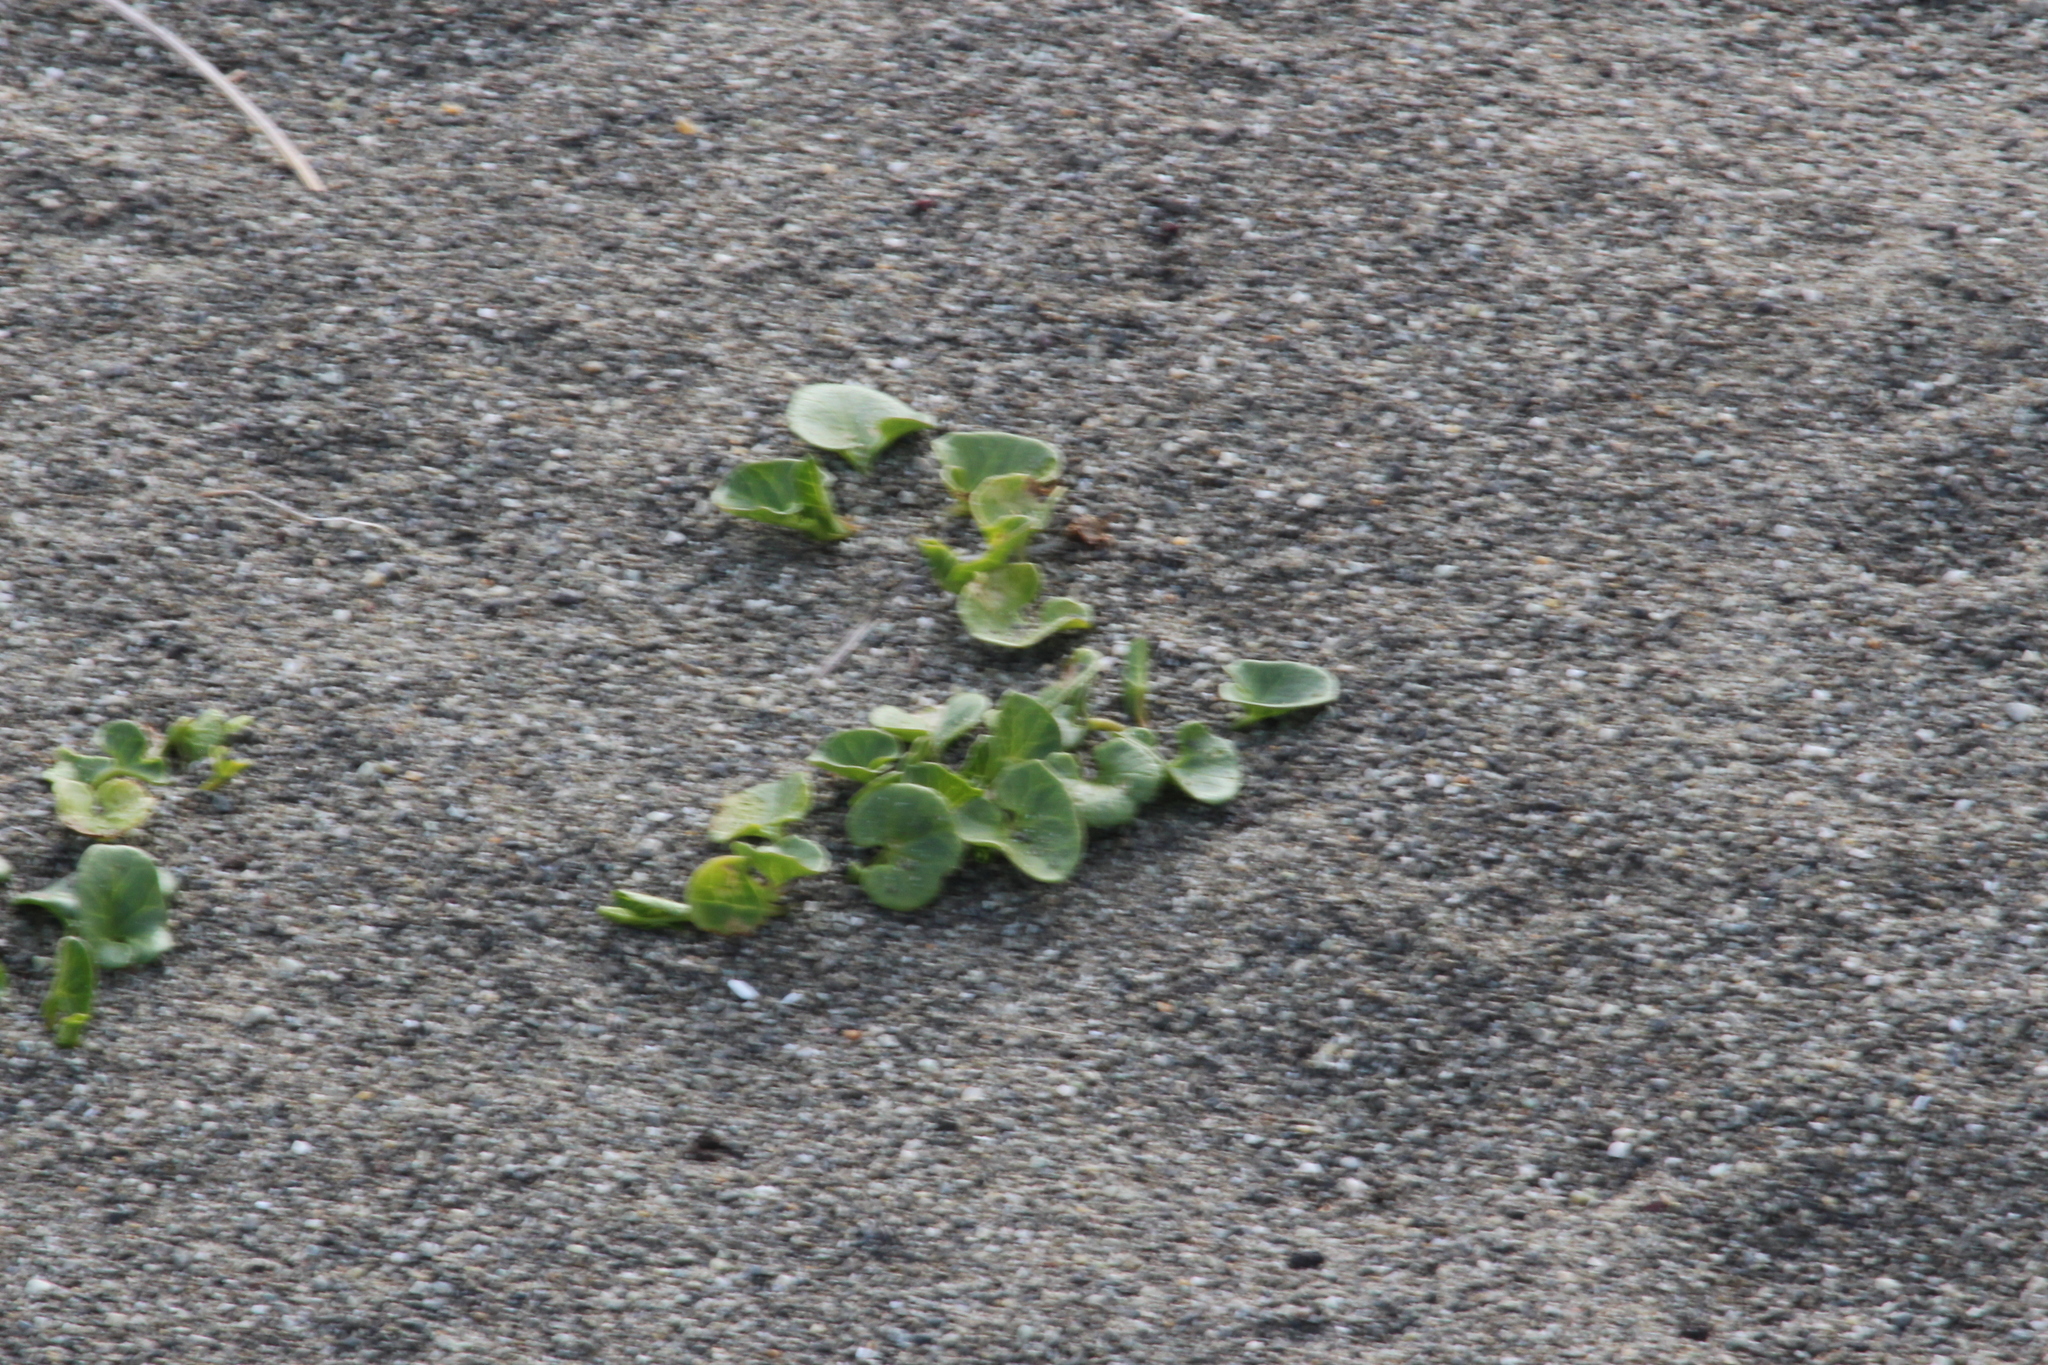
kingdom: Plantae
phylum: Tracheophyta
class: Magnoliopsida
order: Solanales
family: Convolvulaceae
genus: Calystegia
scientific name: Calystegia soldanella
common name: Sea bindweed
